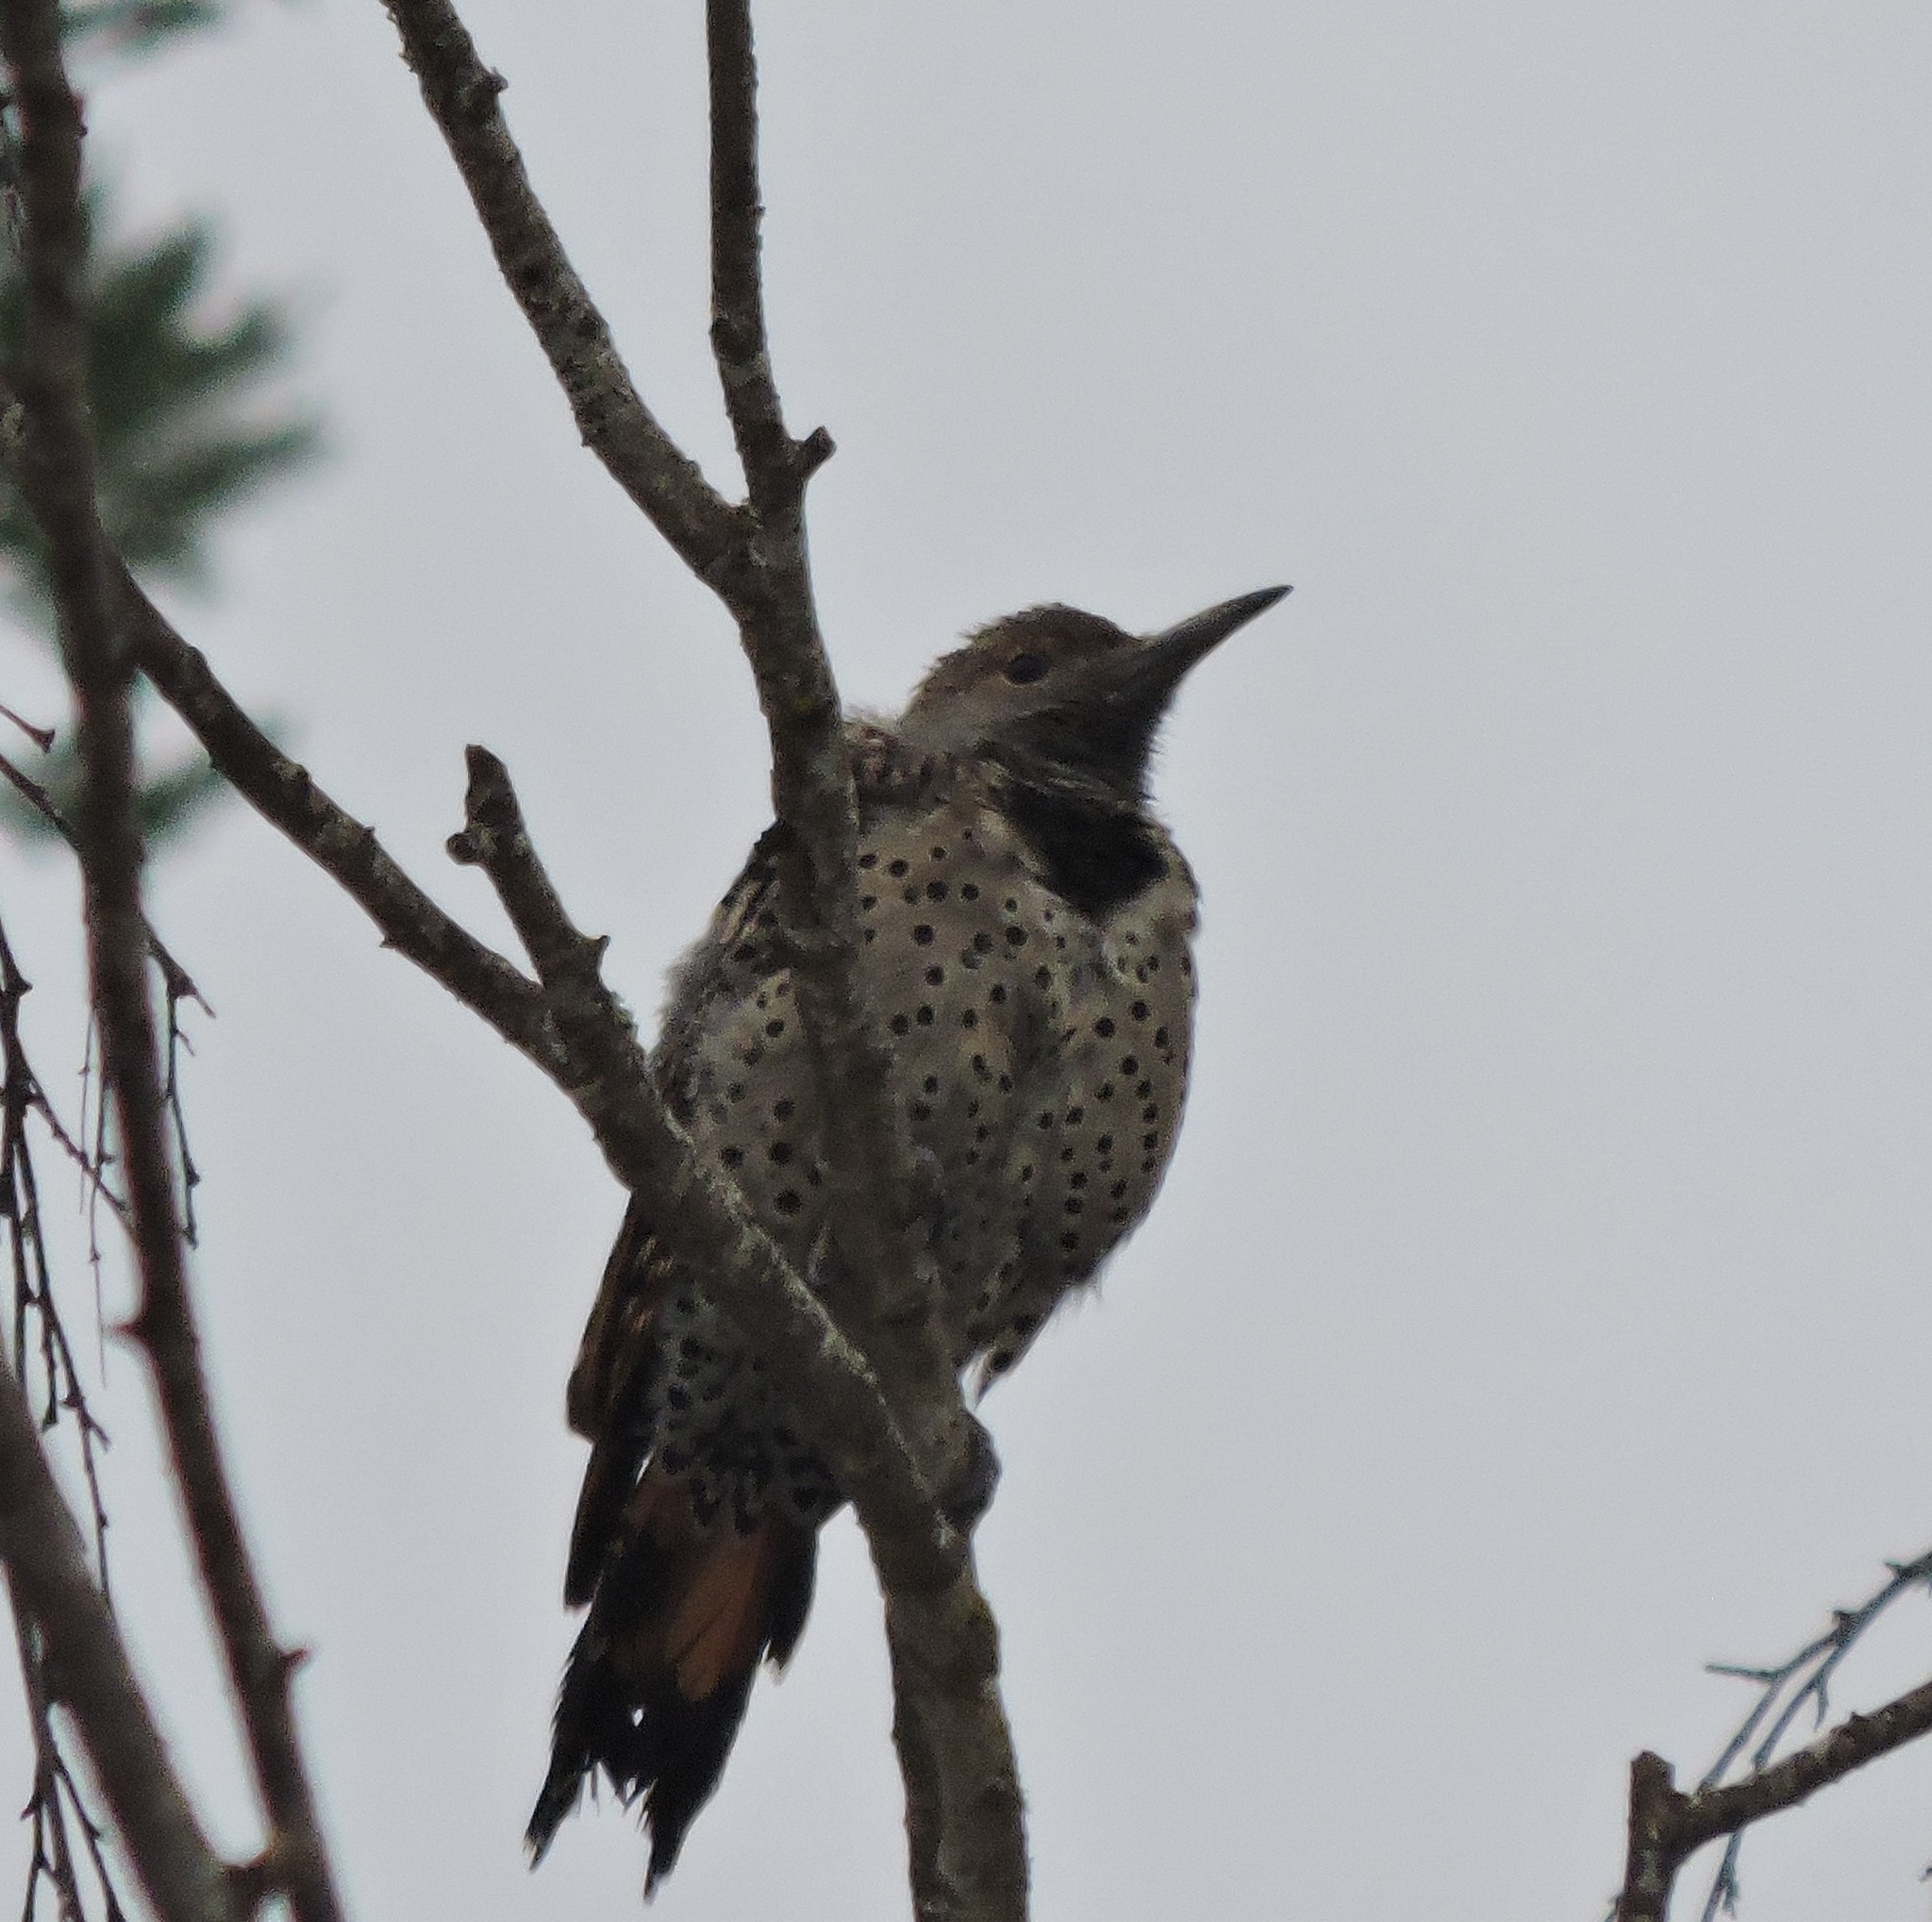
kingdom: Animalia
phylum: Chordata
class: Aves
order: Piciformes
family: Picidae
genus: Colaptes
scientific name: Colaptes auratus
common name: Northern flicker
